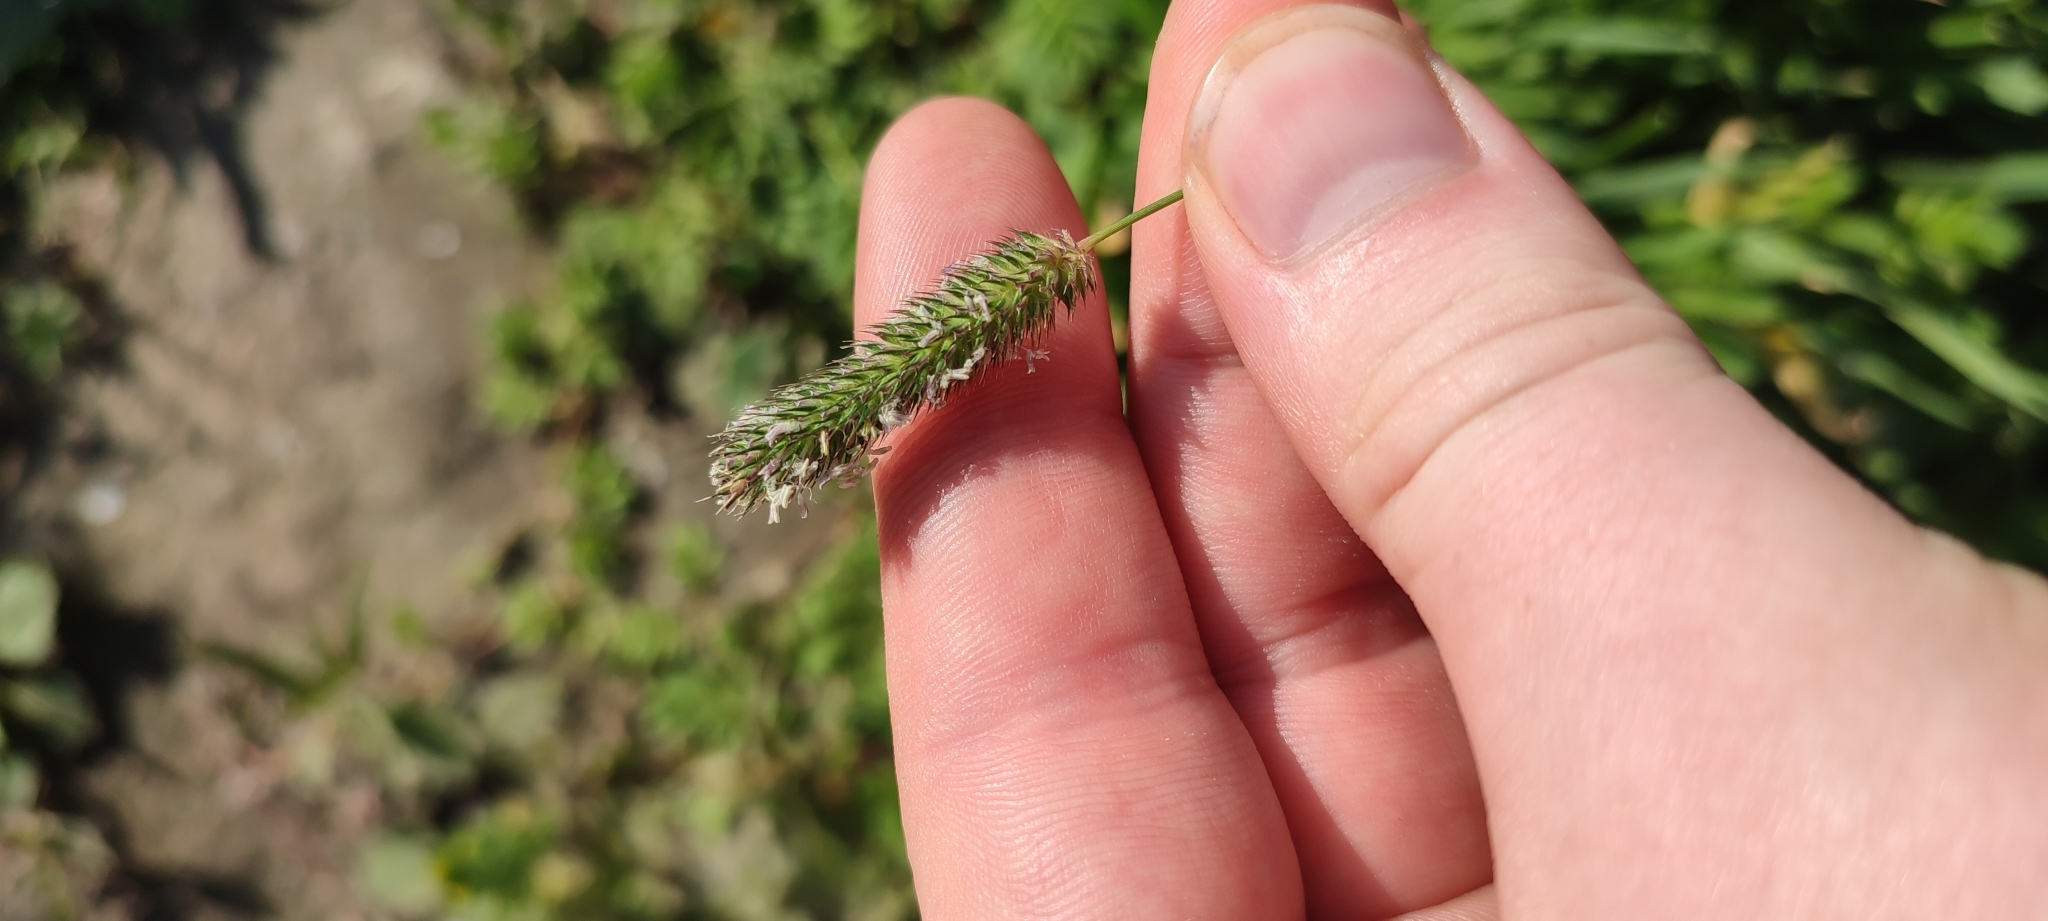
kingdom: Plantae
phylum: Tracheophyta
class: Liliopsida
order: Poales
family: Poaceae
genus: Phleum
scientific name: Phleum pratense
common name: Timothy grass
